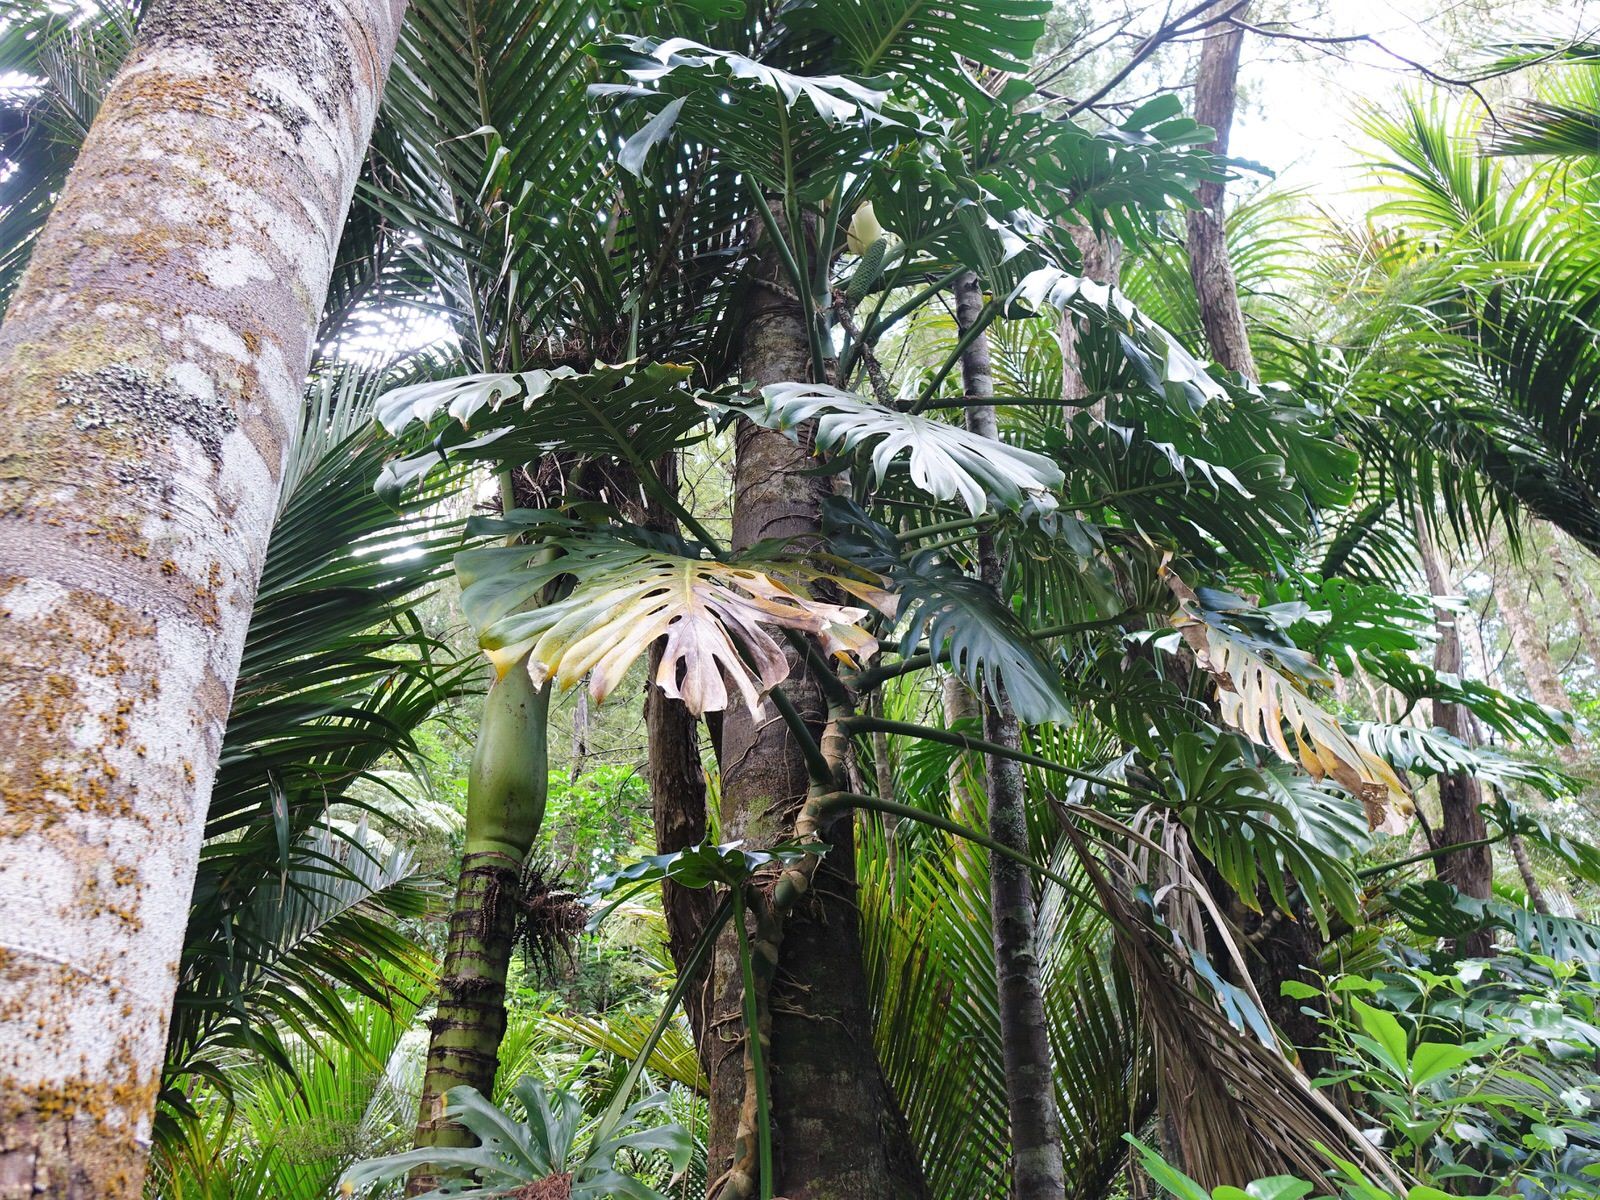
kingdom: Plantae
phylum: Tracheophyta
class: Liliopsida
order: Alismatales
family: Araceae
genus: Monstera
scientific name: Monstera deliciosa
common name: Cut-leaf-philodendron
